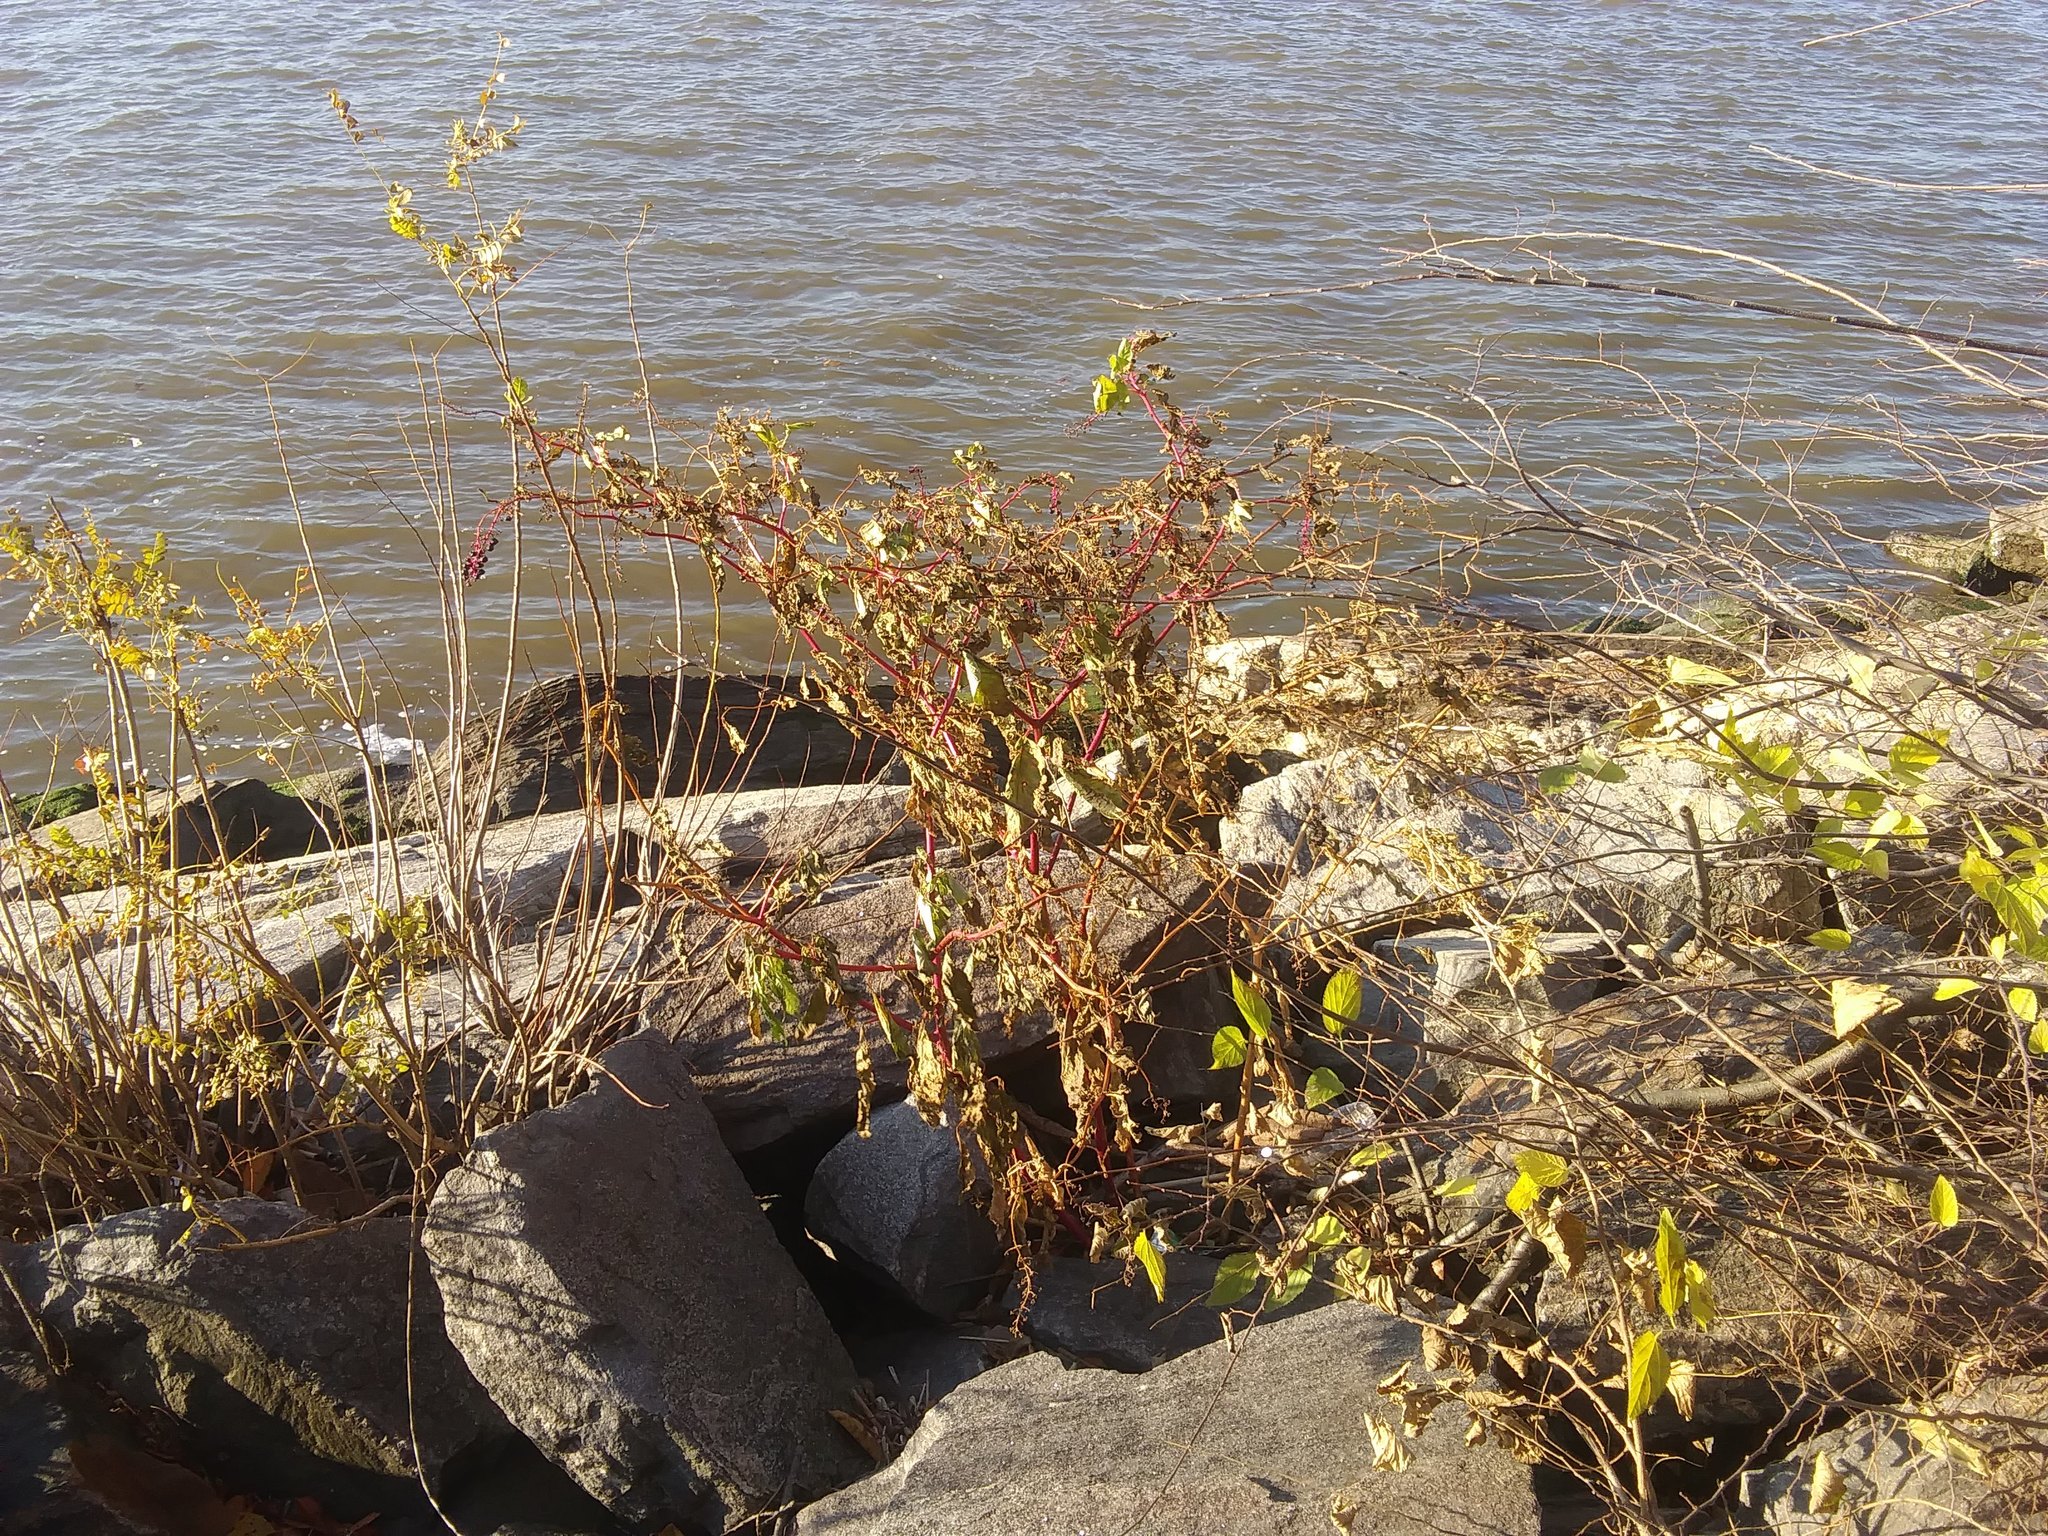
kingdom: Plantae
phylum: Tracheophyta
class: Magnoliopsida
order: Caryophyllales
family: Phytolaccaceae
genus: Phytolacca
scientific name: Phytolacca americana
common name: American pokeweed
